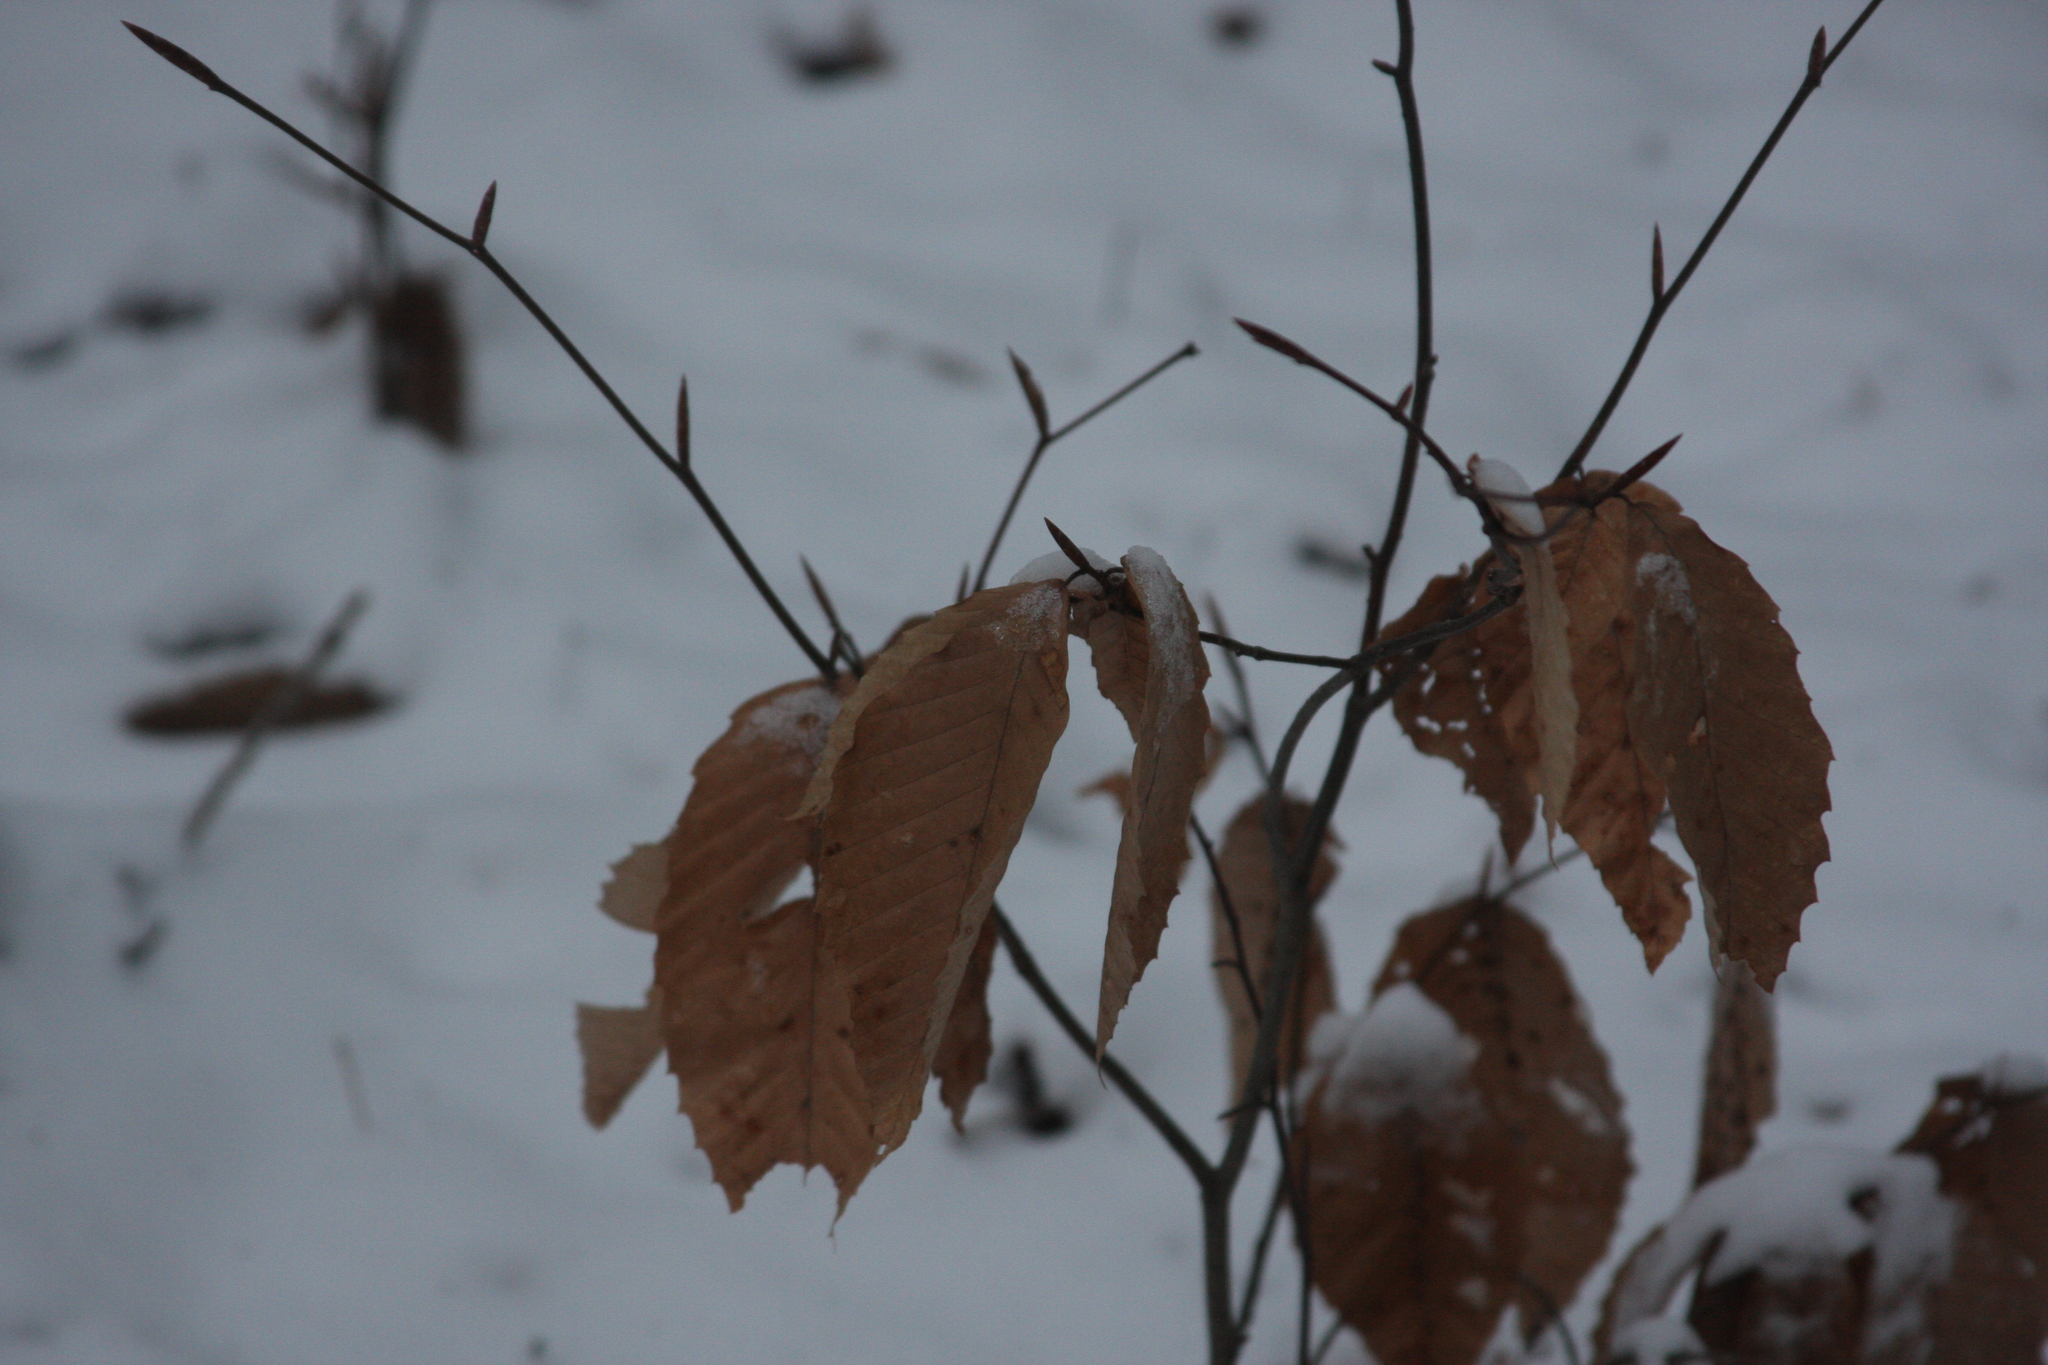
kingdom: Plantae
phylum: Tracheophyta
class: Magnoliopsida
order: Fagales
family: Fagaceae
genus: Fagus
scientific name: Fagus grandifolia
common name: American beech
